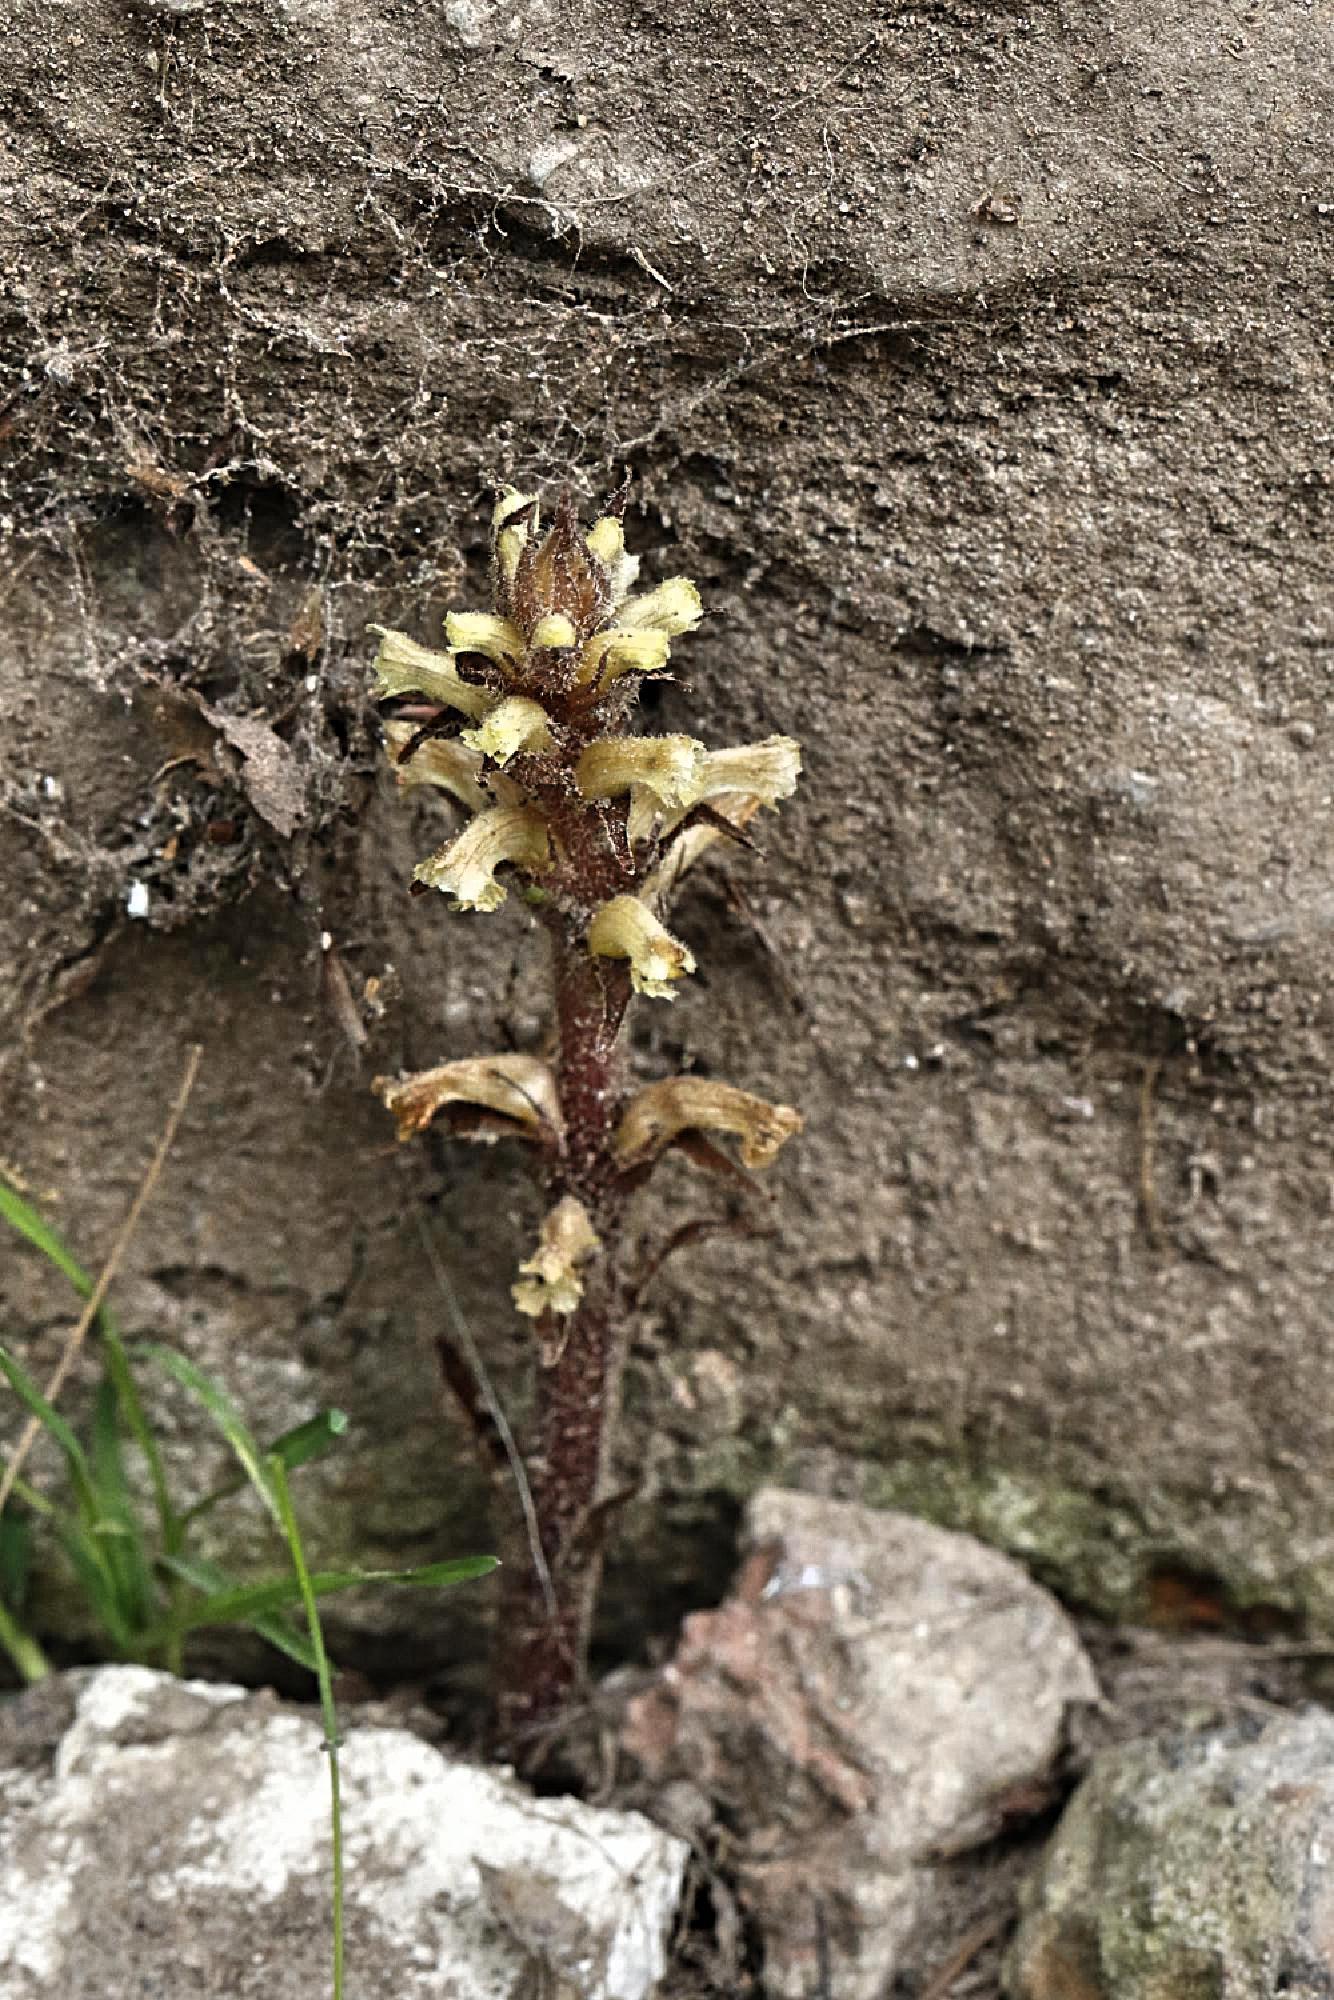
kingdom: Plantae
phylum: Tracheophyta
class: Magnoliopsida
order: Lamiales
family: Orobanchaceae
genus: Orobanche
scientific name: Orobanche hederae
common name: Ivy broomrape
